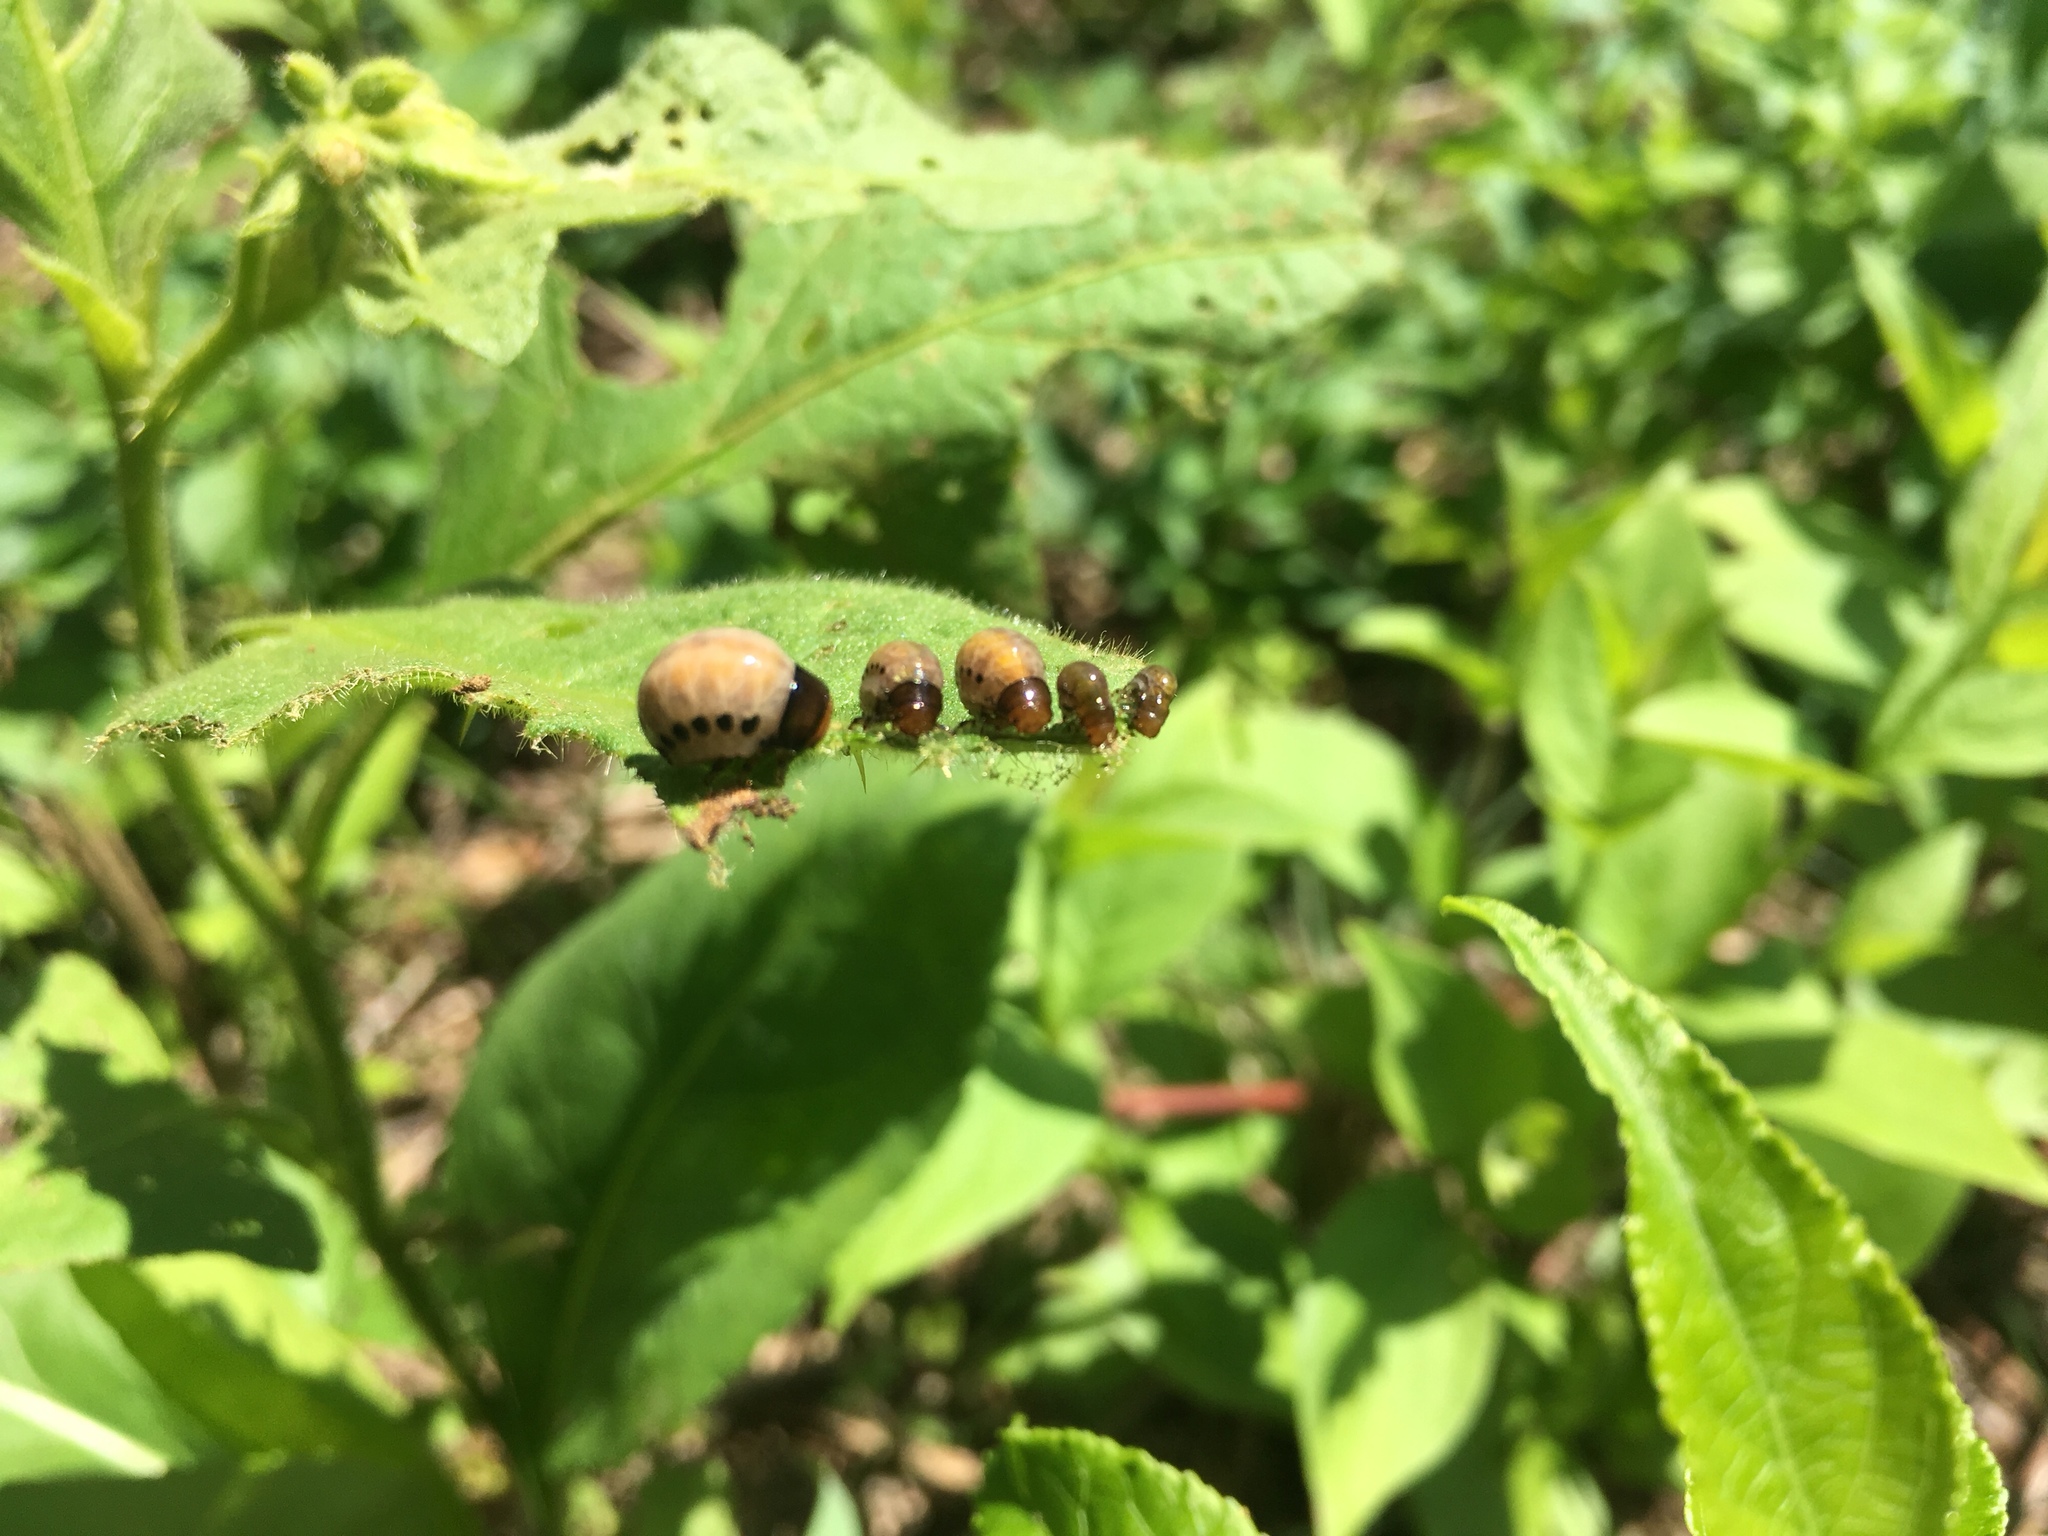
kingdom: Animalia
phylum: Arthropoda
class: Insecta
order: Coleoptera
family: Chrysomelidae
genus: Leptinotarsa
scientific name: Leptinotarsa juncta
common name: False potato beetle
